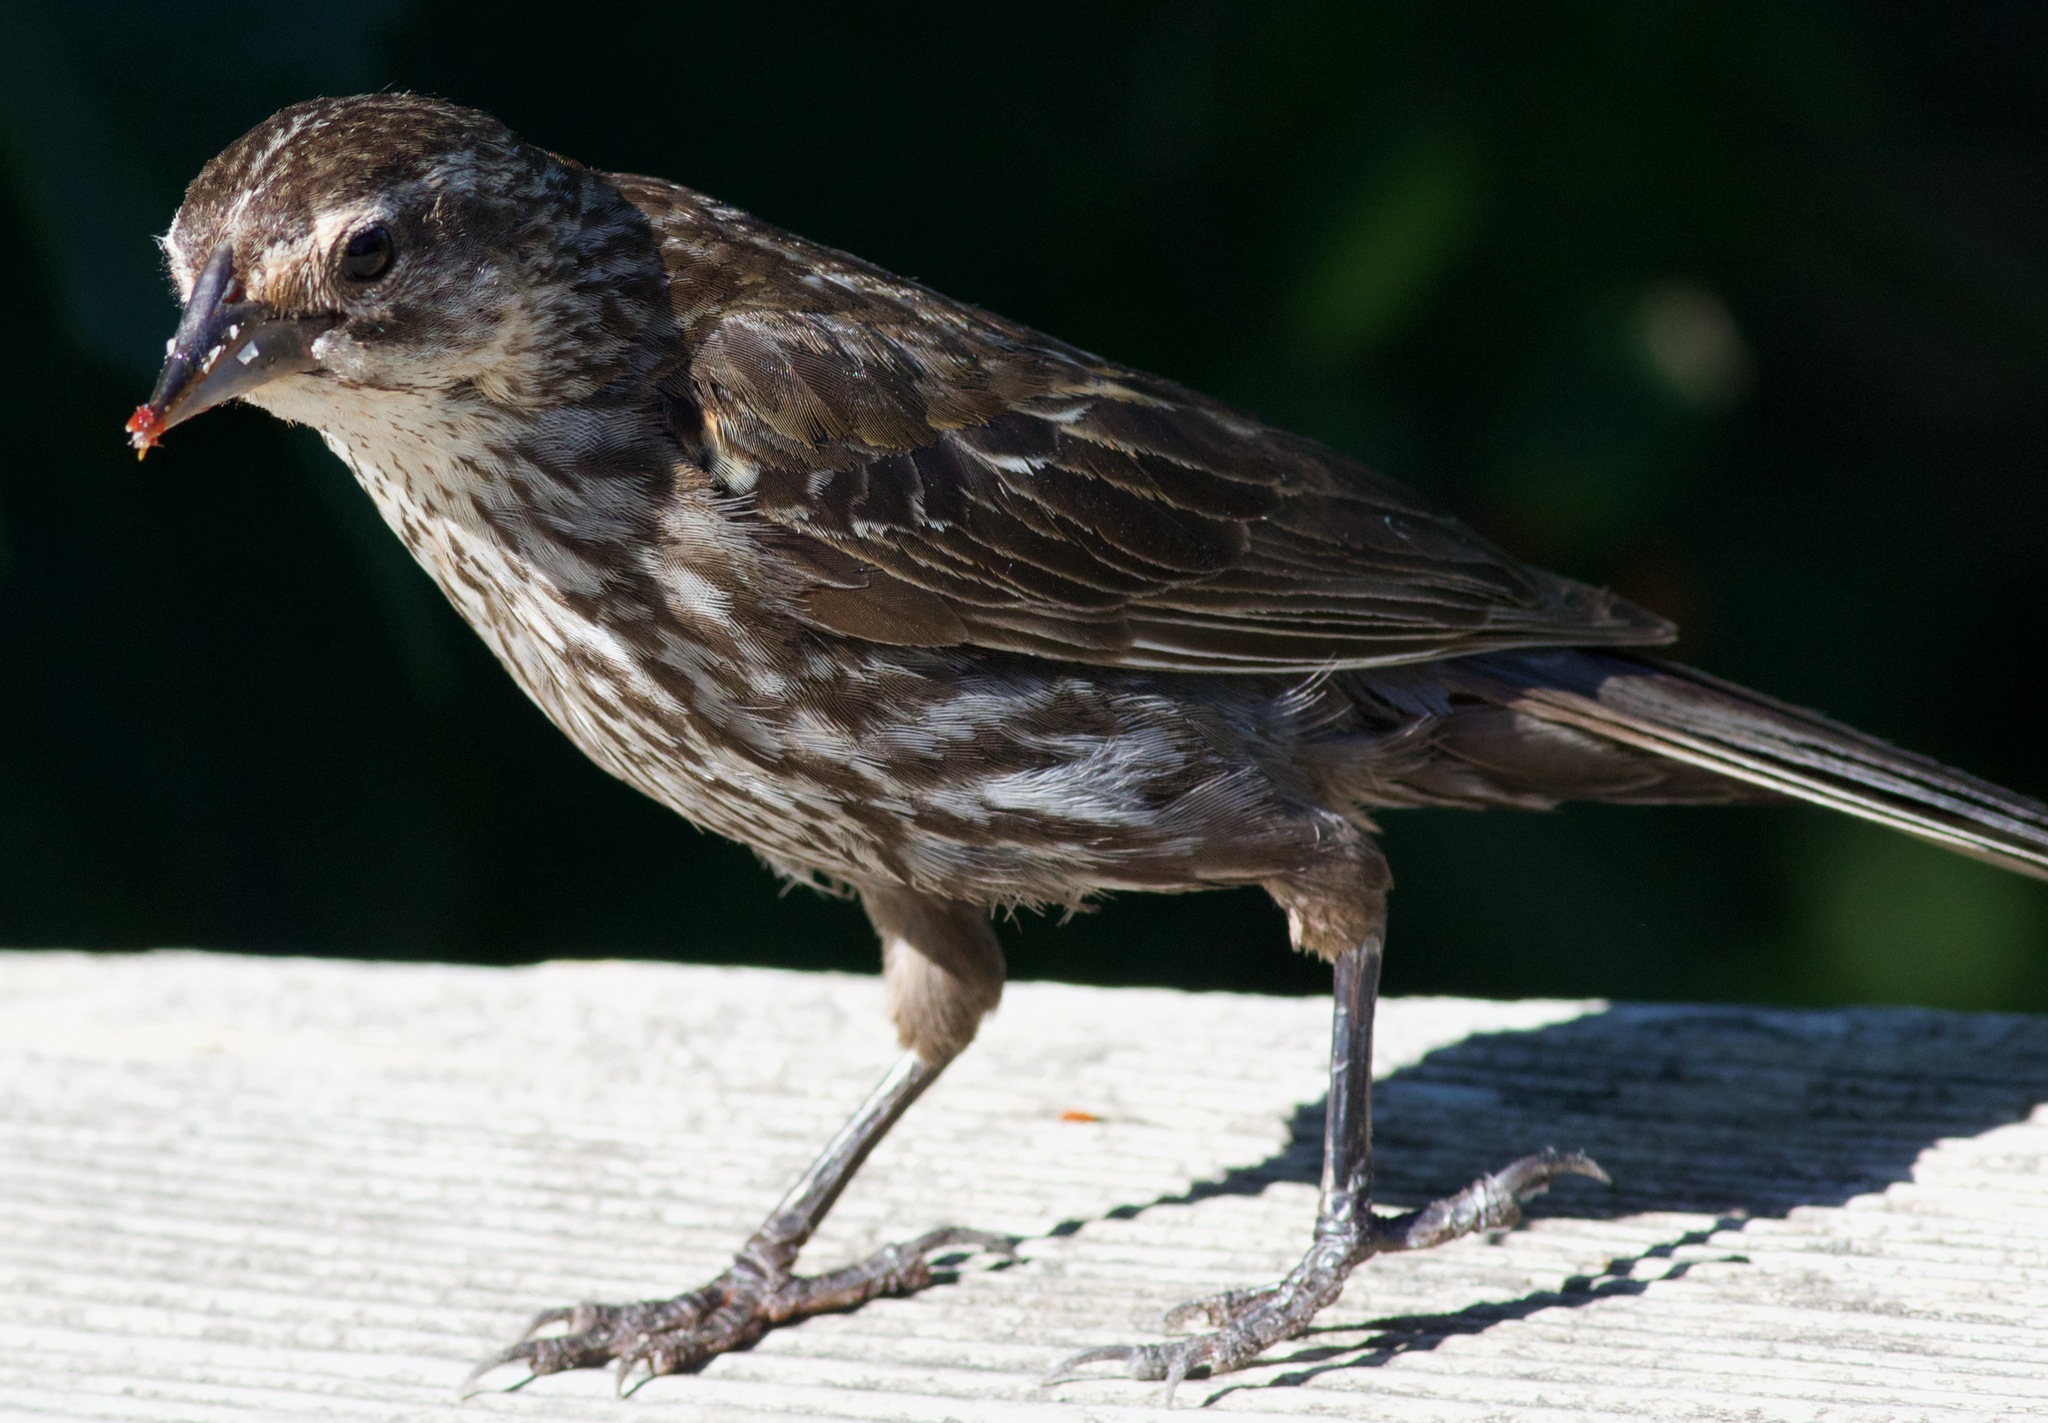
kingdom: Animalia
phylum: Chordata
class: Aves
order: Passeriformes
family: Icteridae
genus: Agelaius
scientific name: Agelaius phoeniceus
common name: Red-winged blackbird
